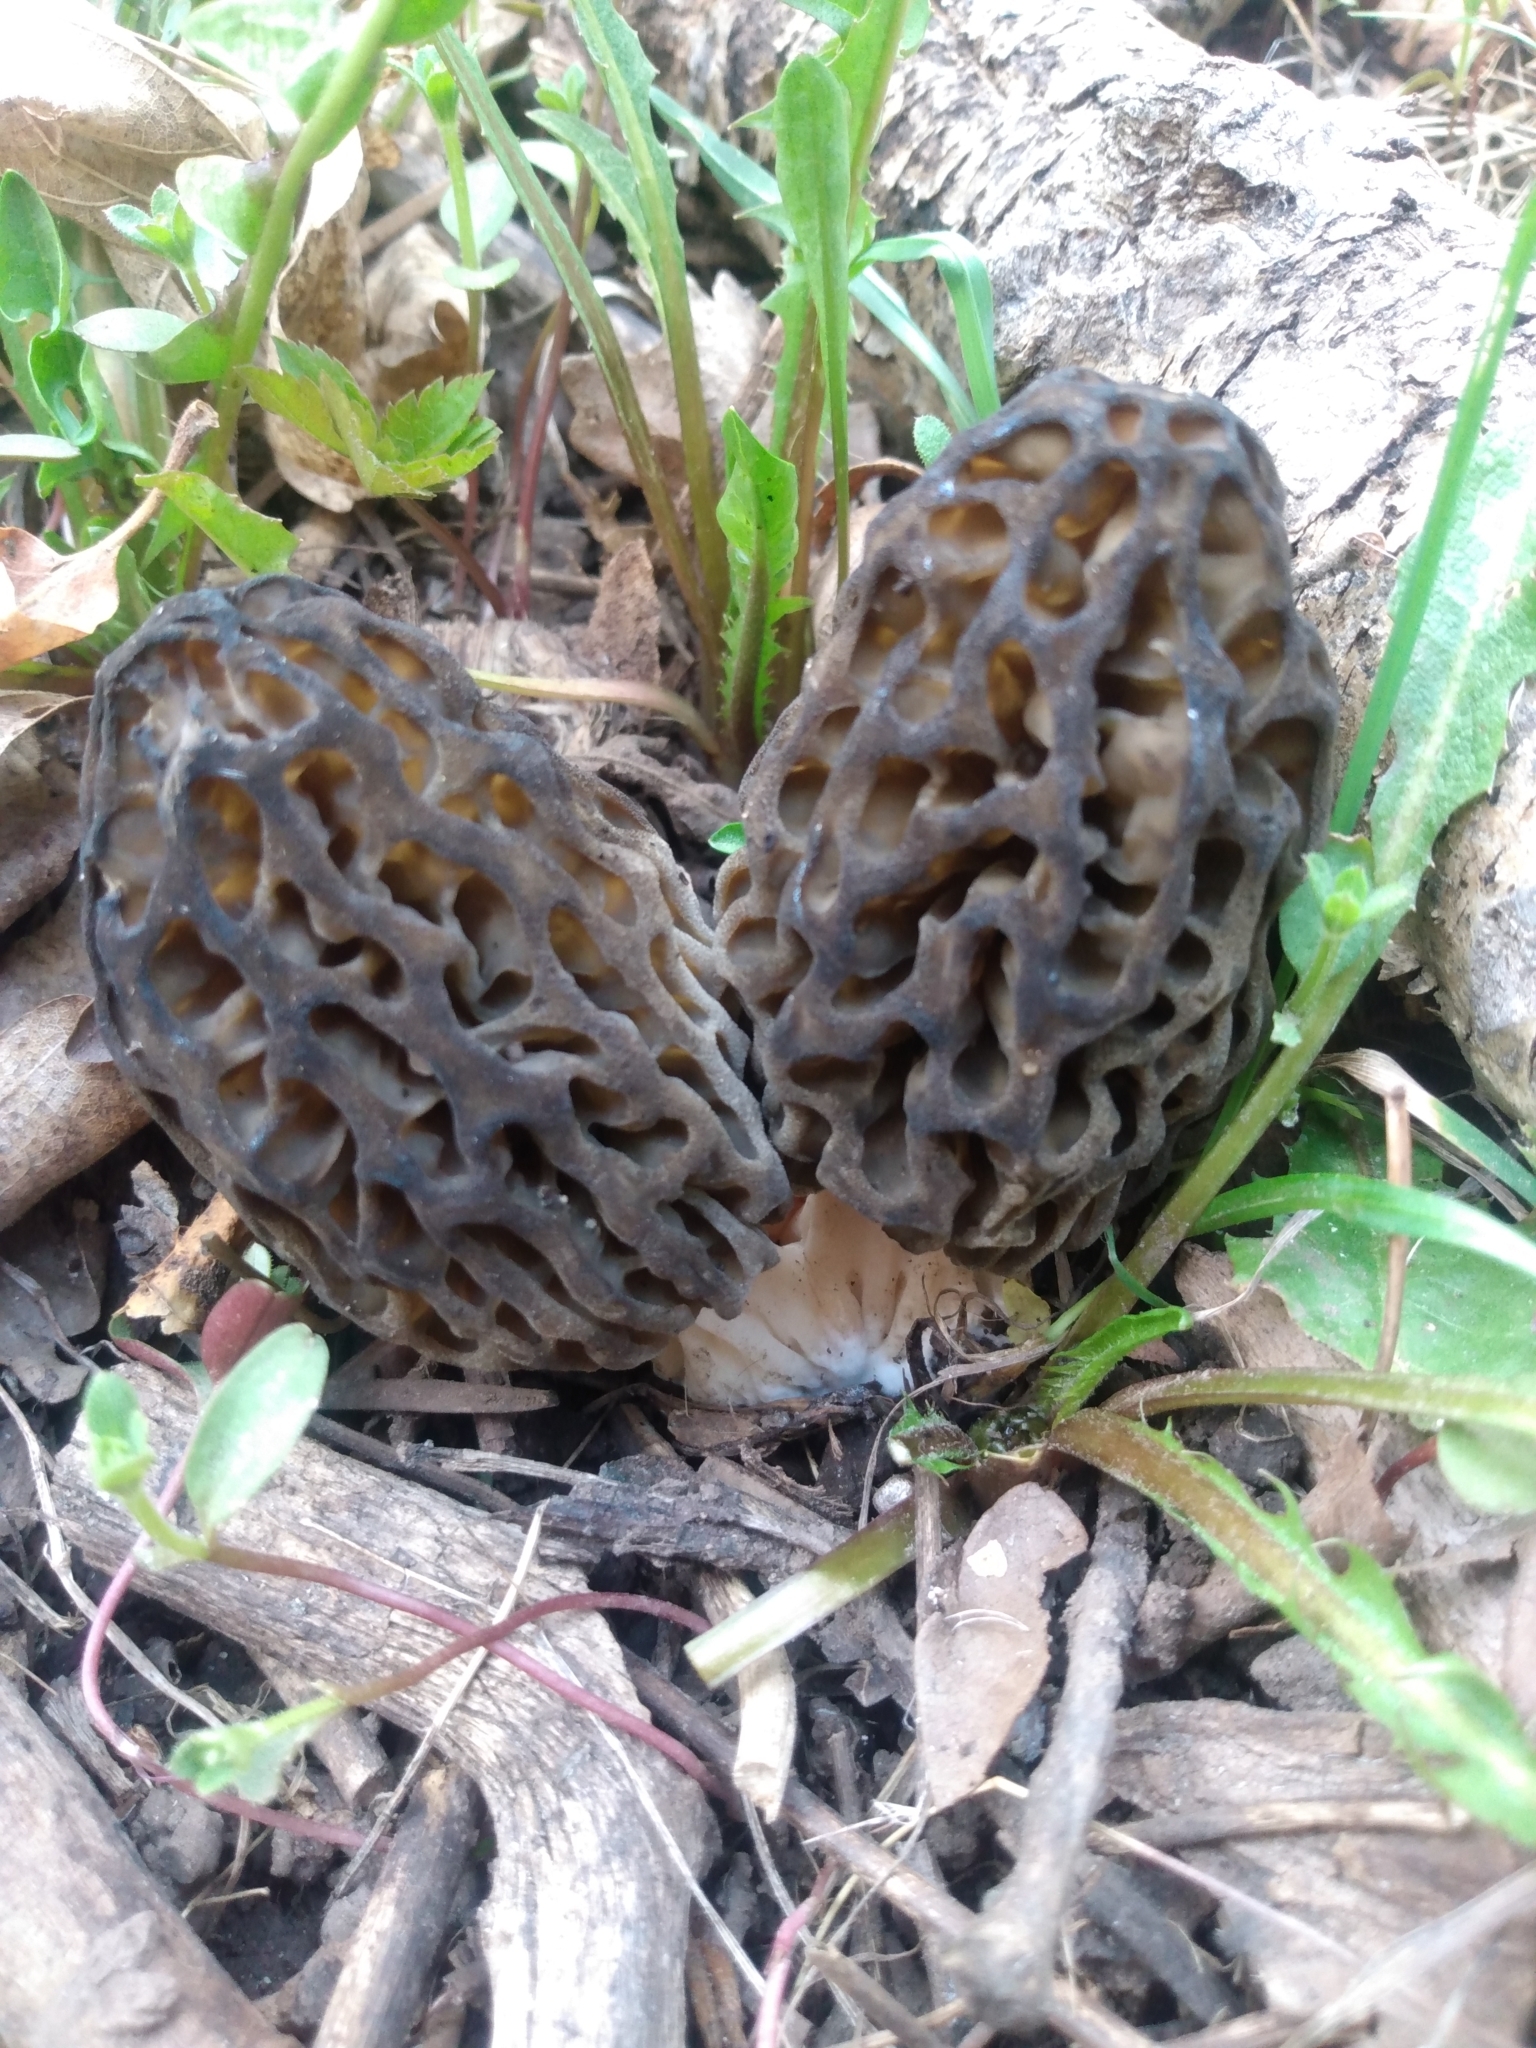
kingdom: Fungi
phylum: Ascomycota
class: Pezizomycetes
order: Pezizales
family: Morchellaceae
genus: Morchella
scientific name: Morchella snyderi
